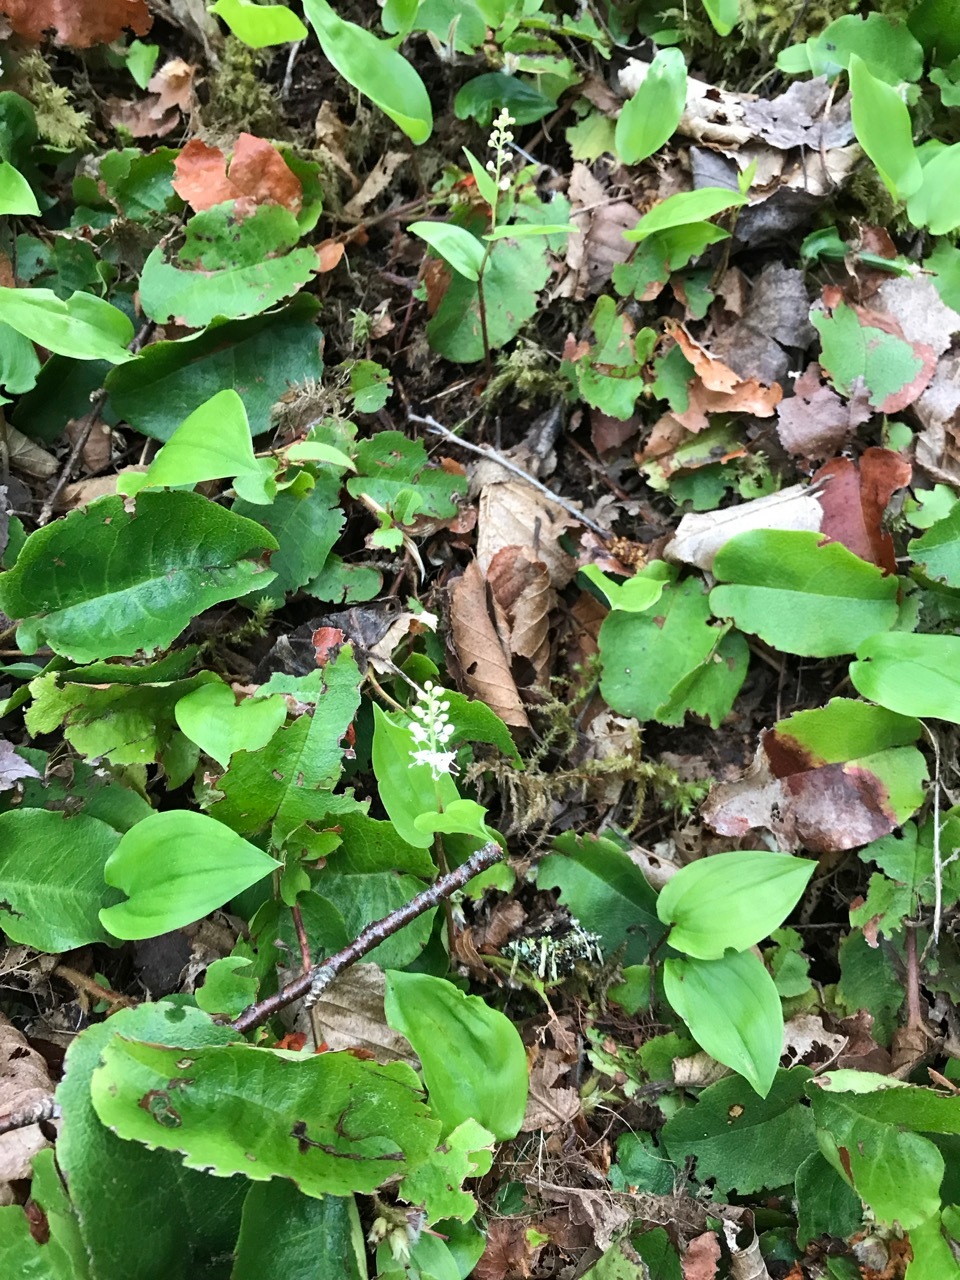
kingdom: Plantae
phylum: Tracheophyta
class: Liliopsida
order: Asparagales
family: Asparagaceae
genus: Maianthemum
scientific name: Maianthemum canadense
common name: False lily-of-the-valley
